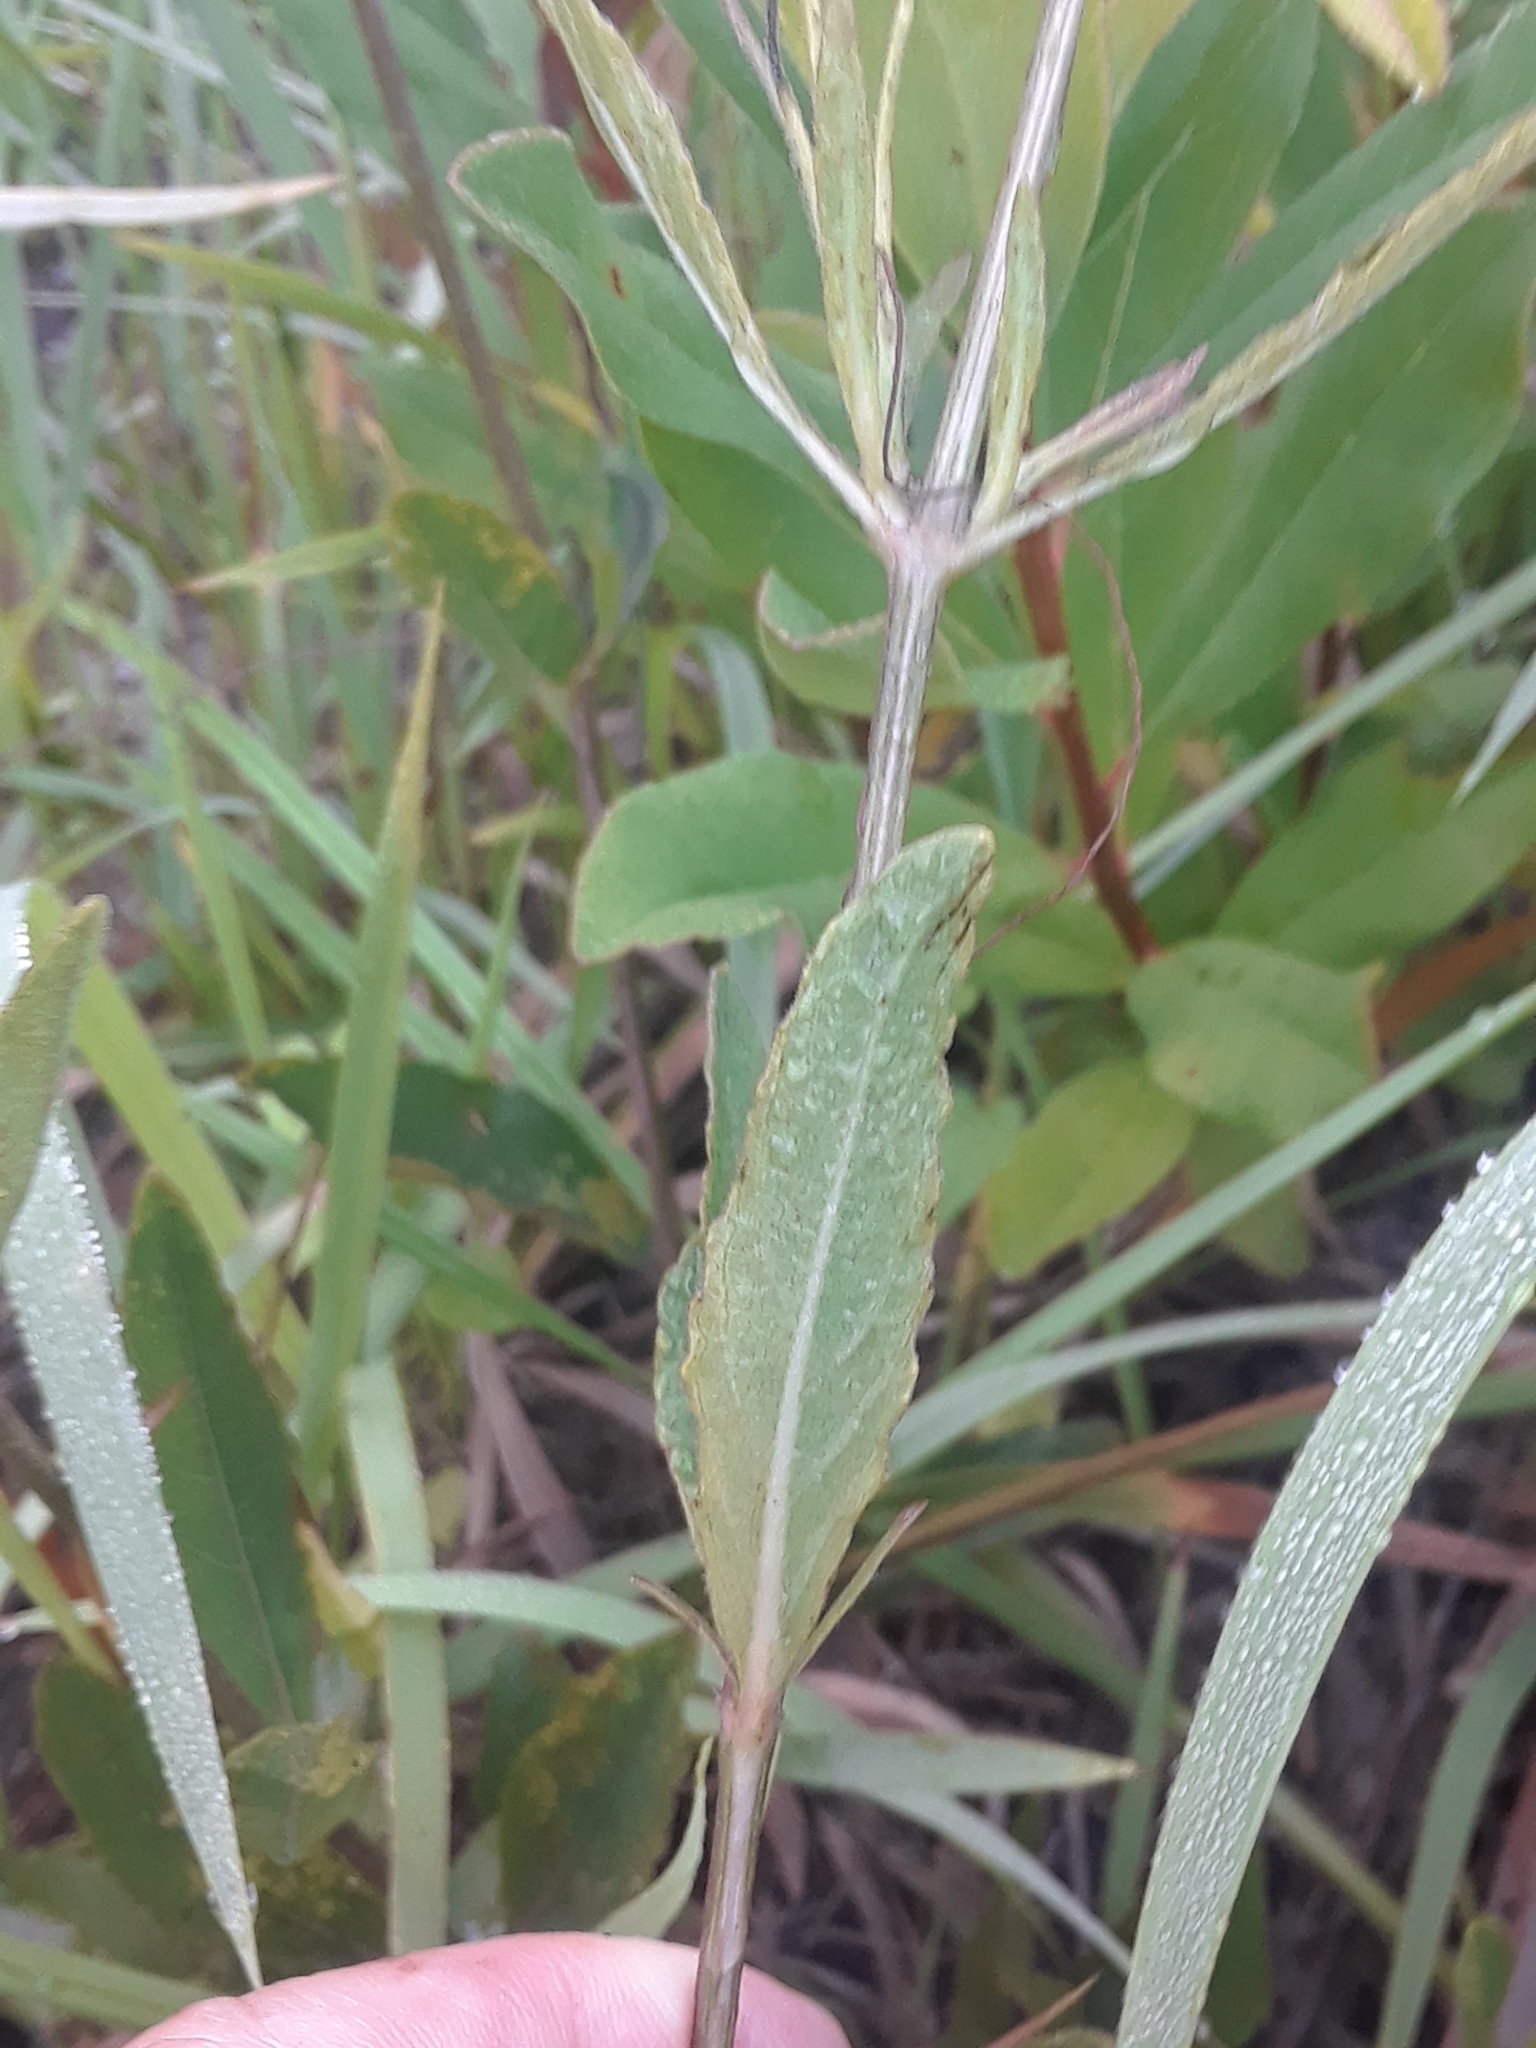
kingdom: Plantae
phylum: Tracheophyta
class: Magnoliopsida
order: Lamiales
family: Acanthaceae
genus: Ruellia
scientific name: Ruellia noctiflora
